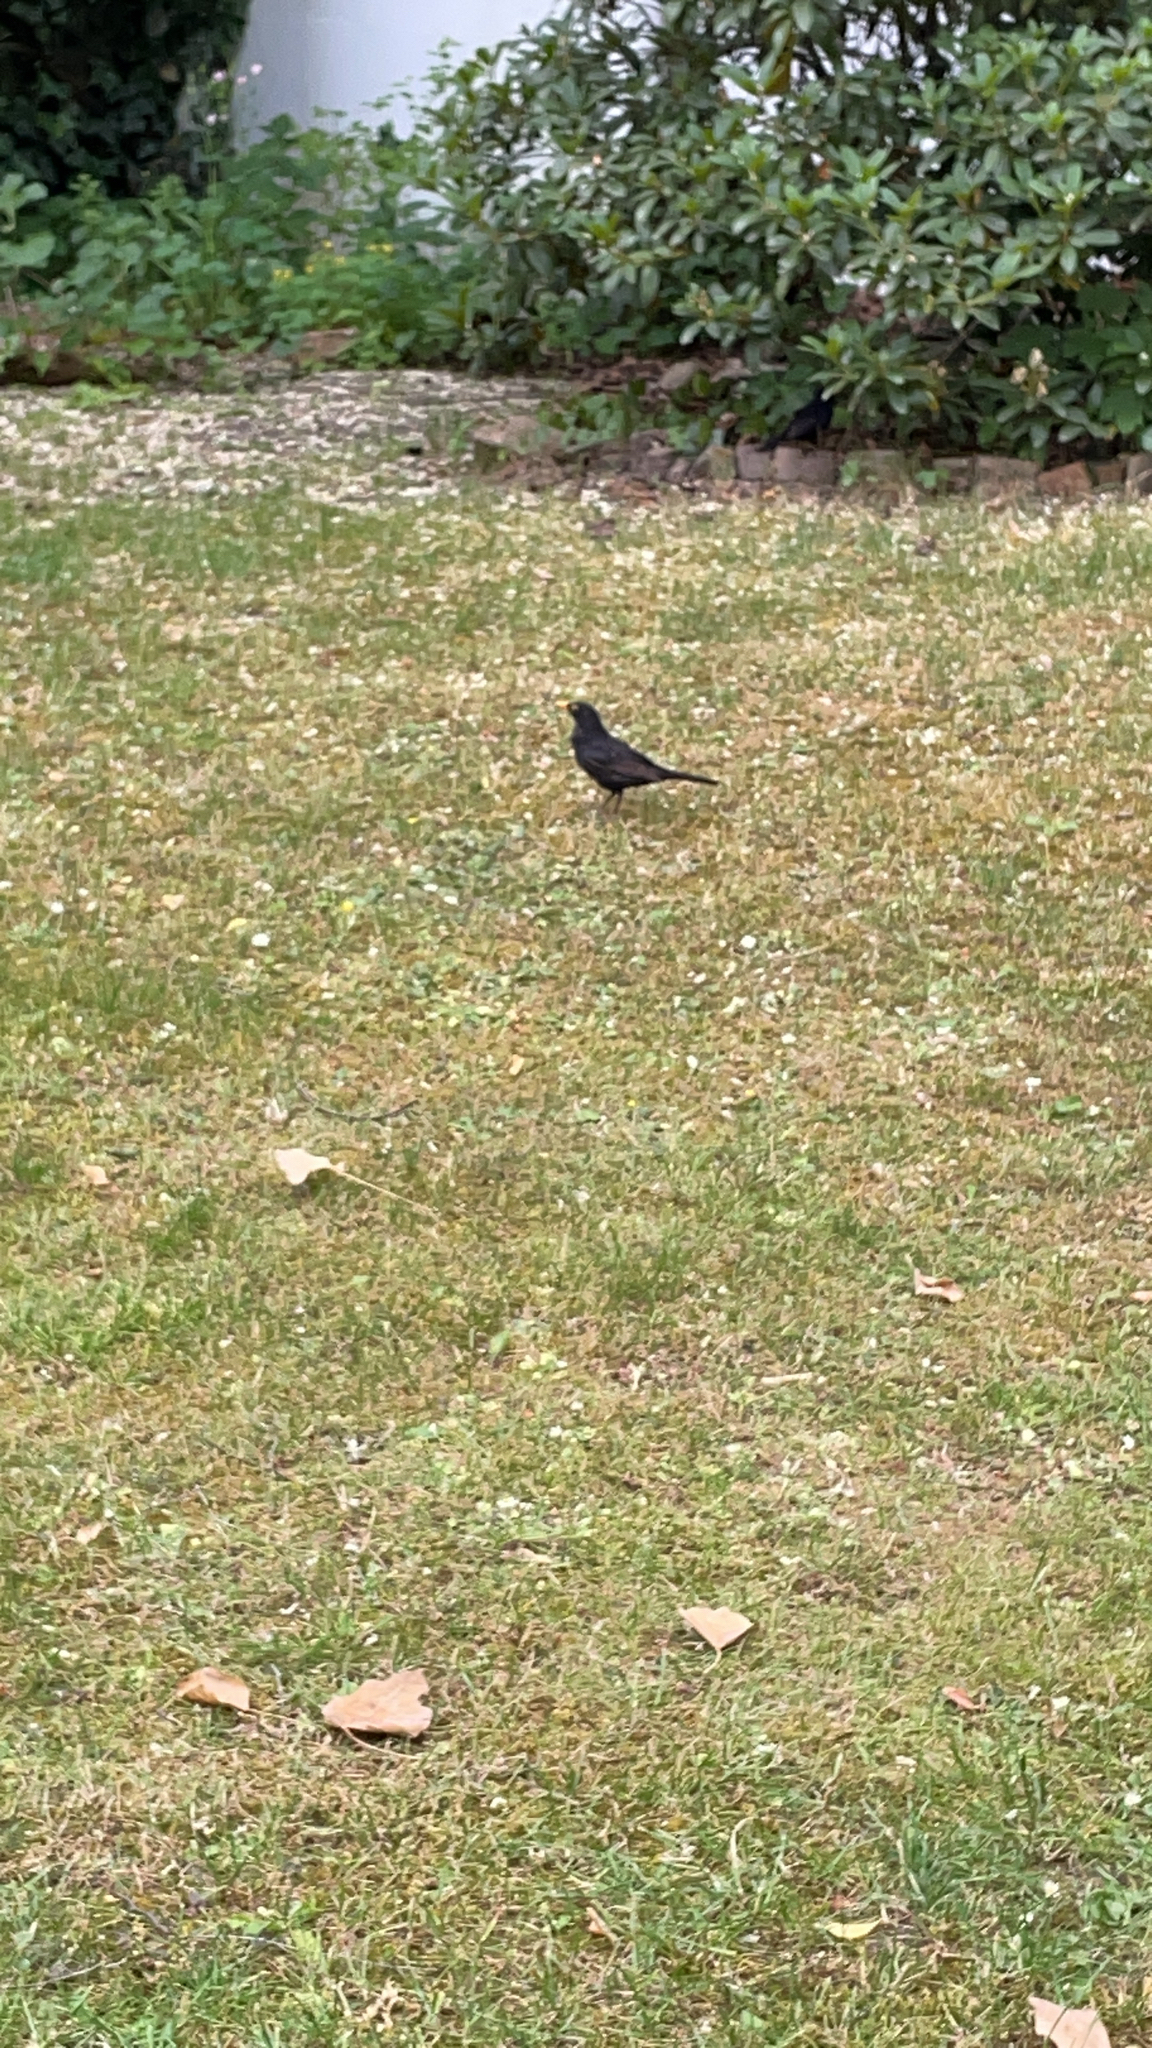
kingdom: Animalia
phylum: Chordata
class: Aves
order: Passeriformes
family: Turdidae
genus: Turdus
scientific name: Turdus merula
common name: Common blackbird
